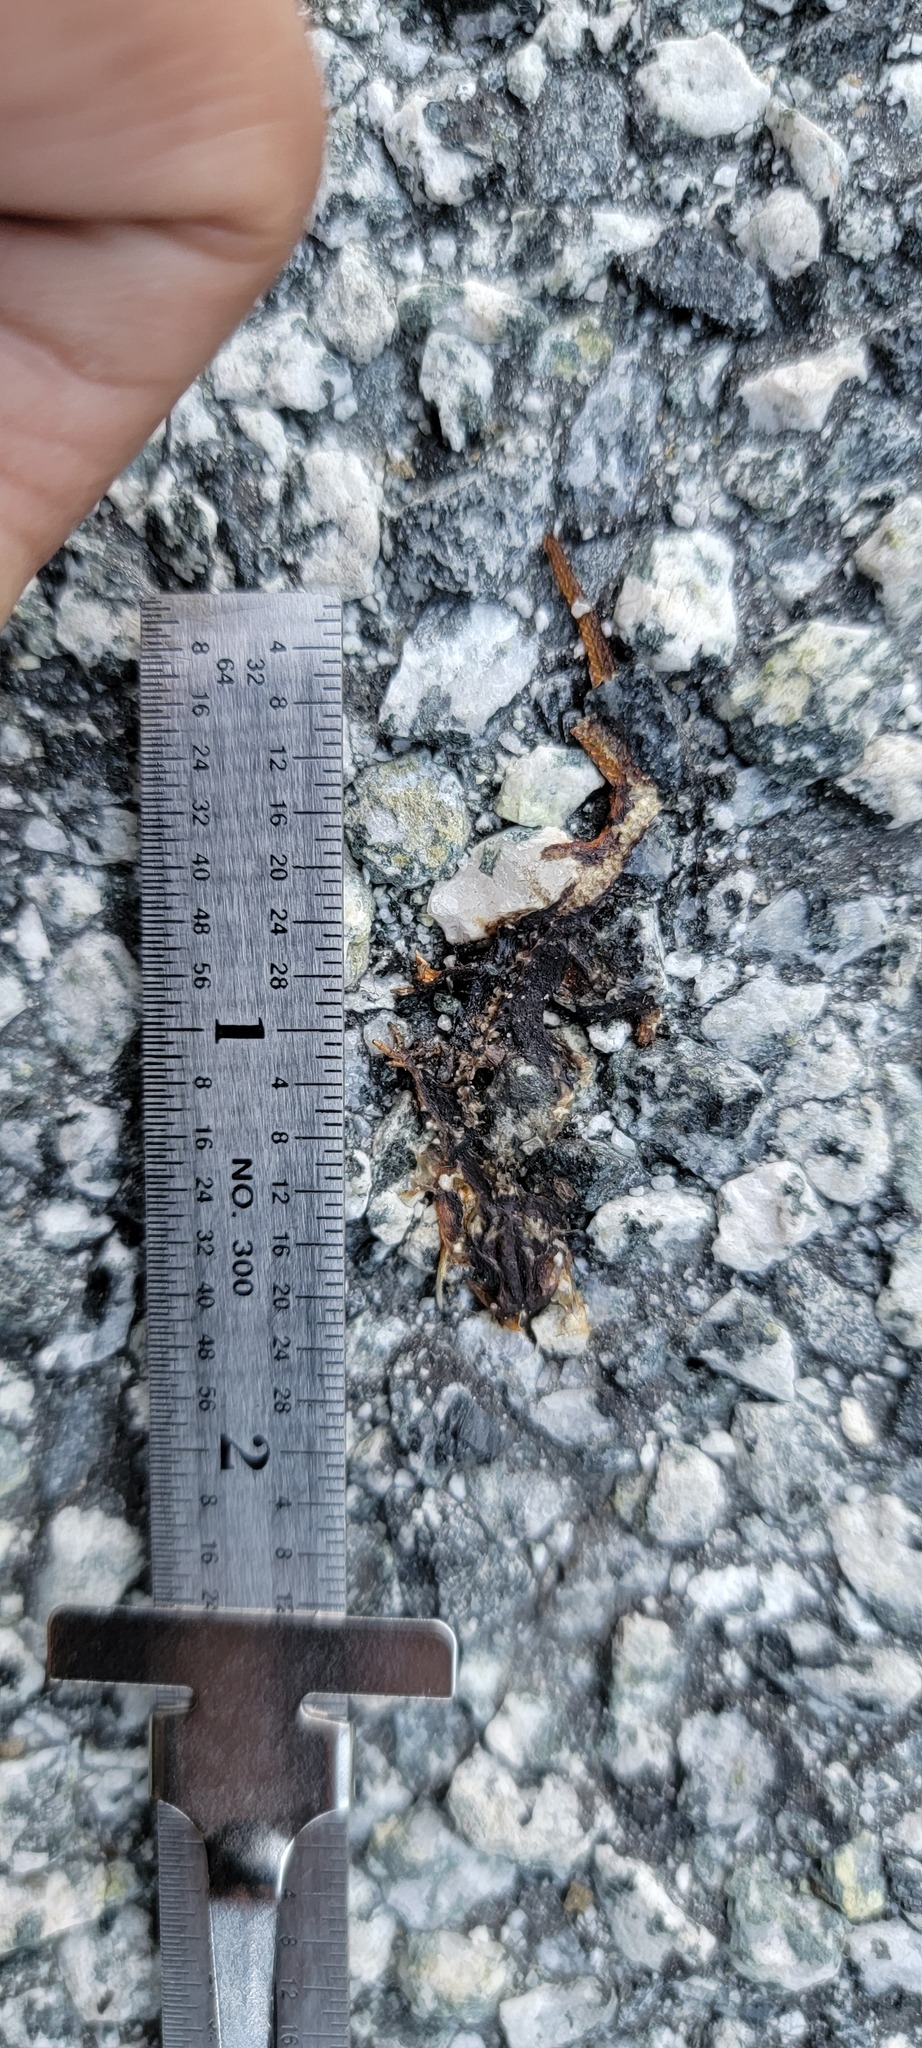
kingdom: Animalia
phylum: Chordata
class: Amphibia
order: Caudata
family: Salamandridae
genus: Taricha
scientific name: Taricha
